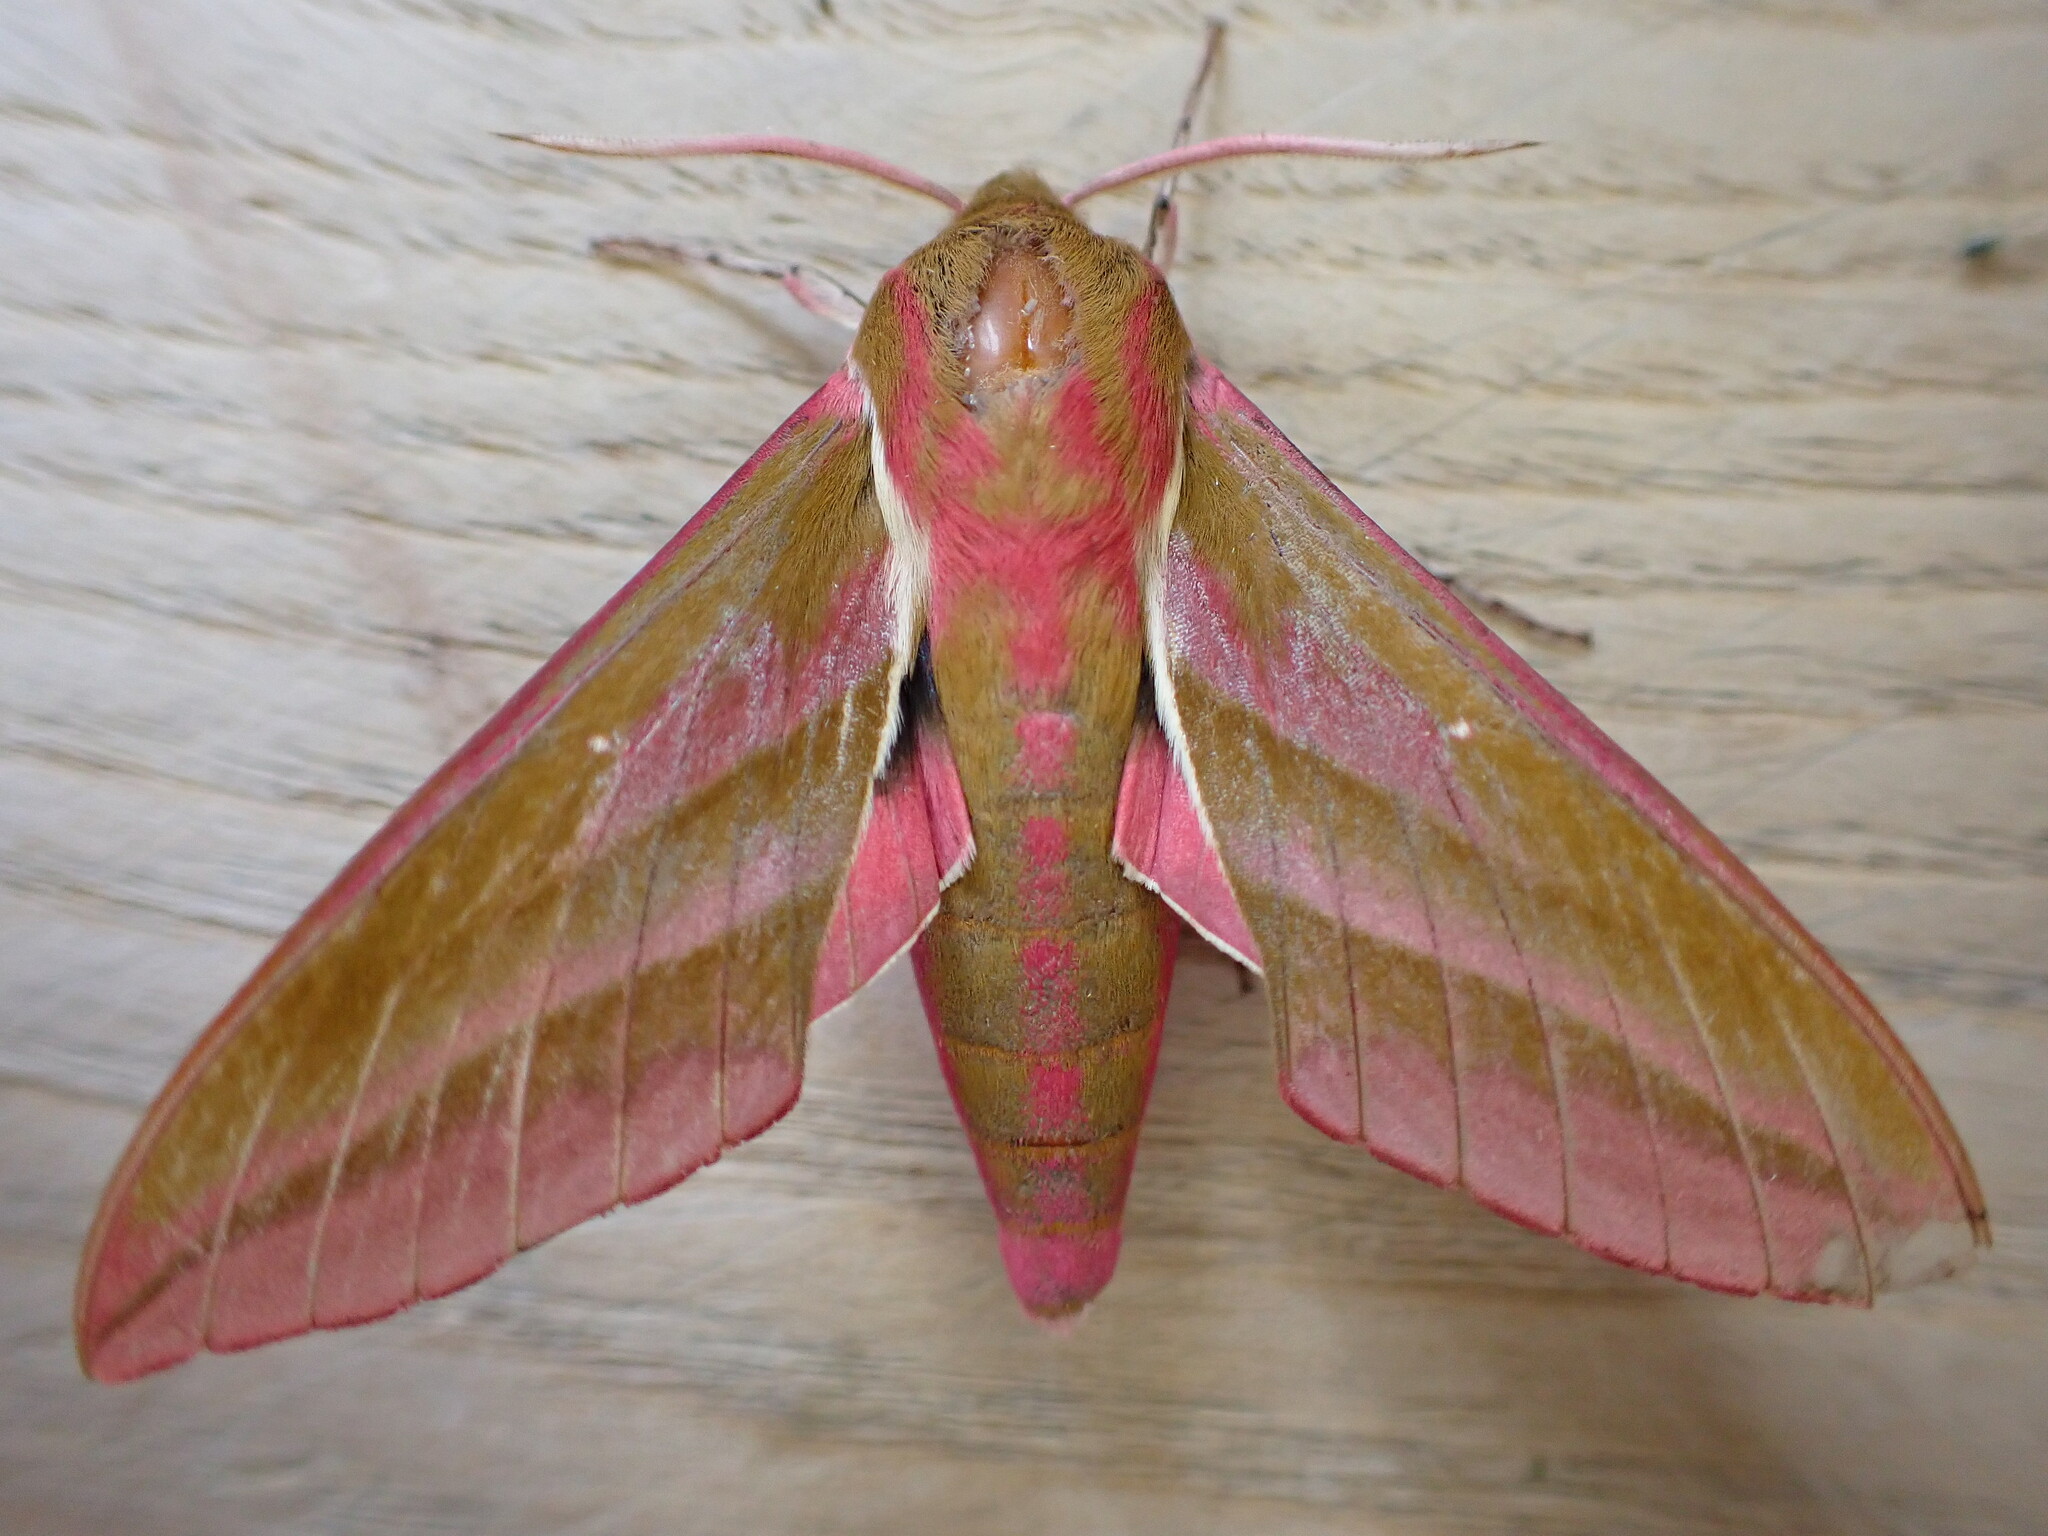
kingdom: Animalia
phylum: Arthropoda
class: Insecta
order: Lepidoptera
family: Sphingidae
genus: Deilephila
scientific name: Deilephila elpenor
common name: Elephant hawk-moth
